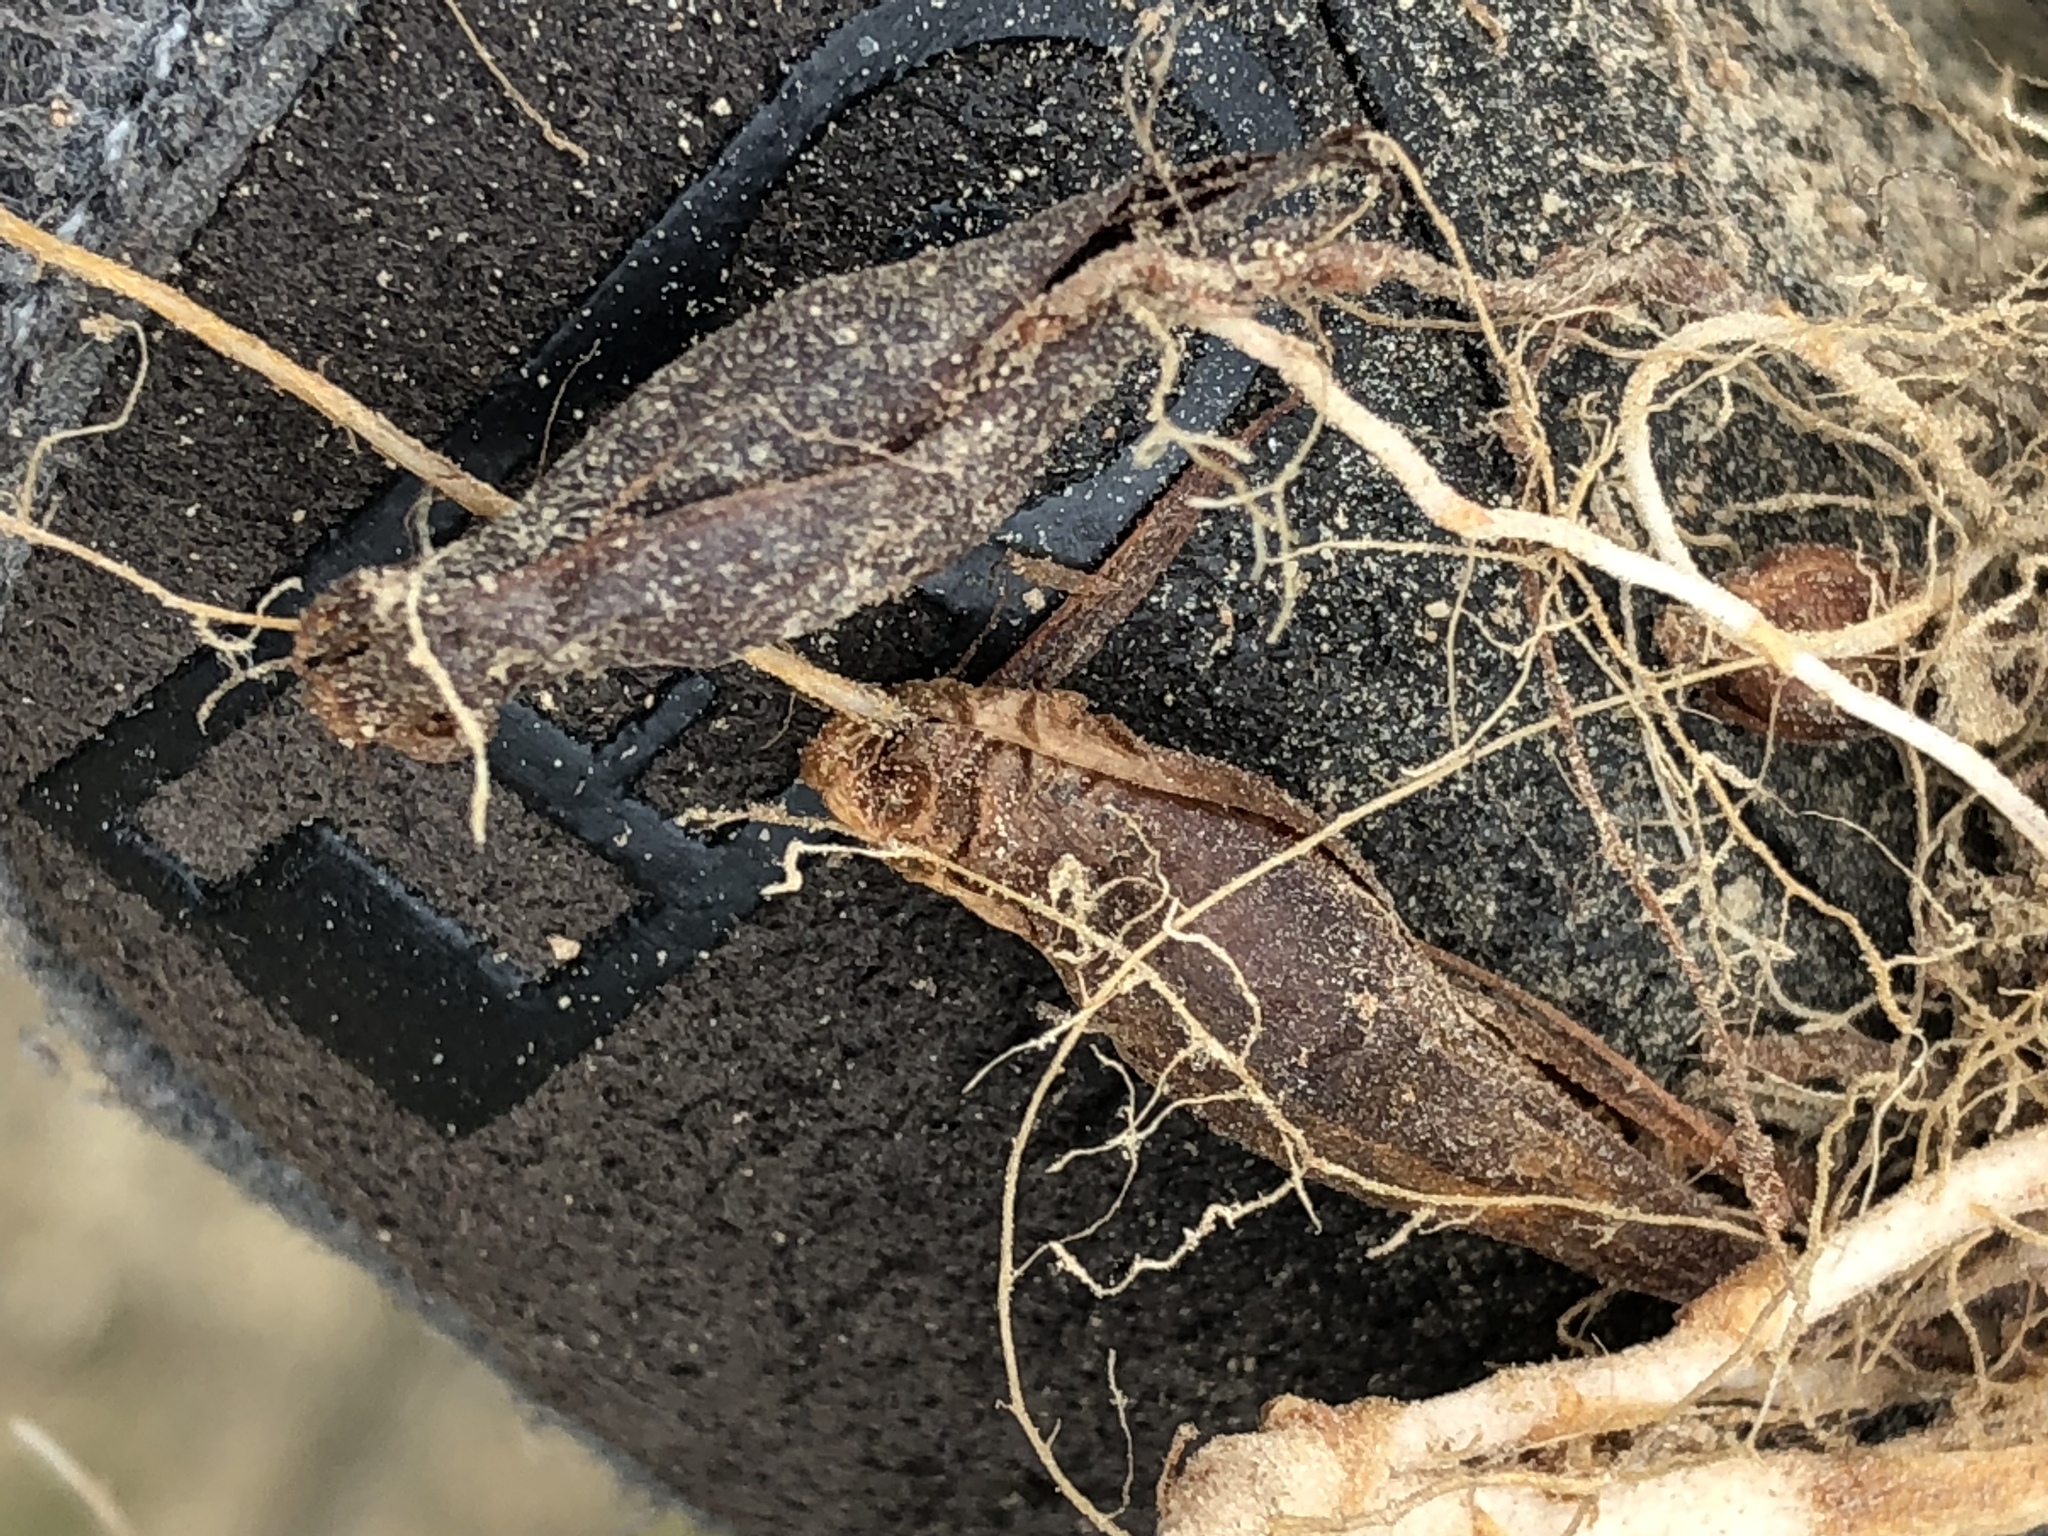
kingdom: Plantae
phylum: Tracheophyta
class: Magnoliopsida
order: Oxalidales
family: Oxalidaceae
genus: Oxalis
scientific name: Oxalis imbricata
